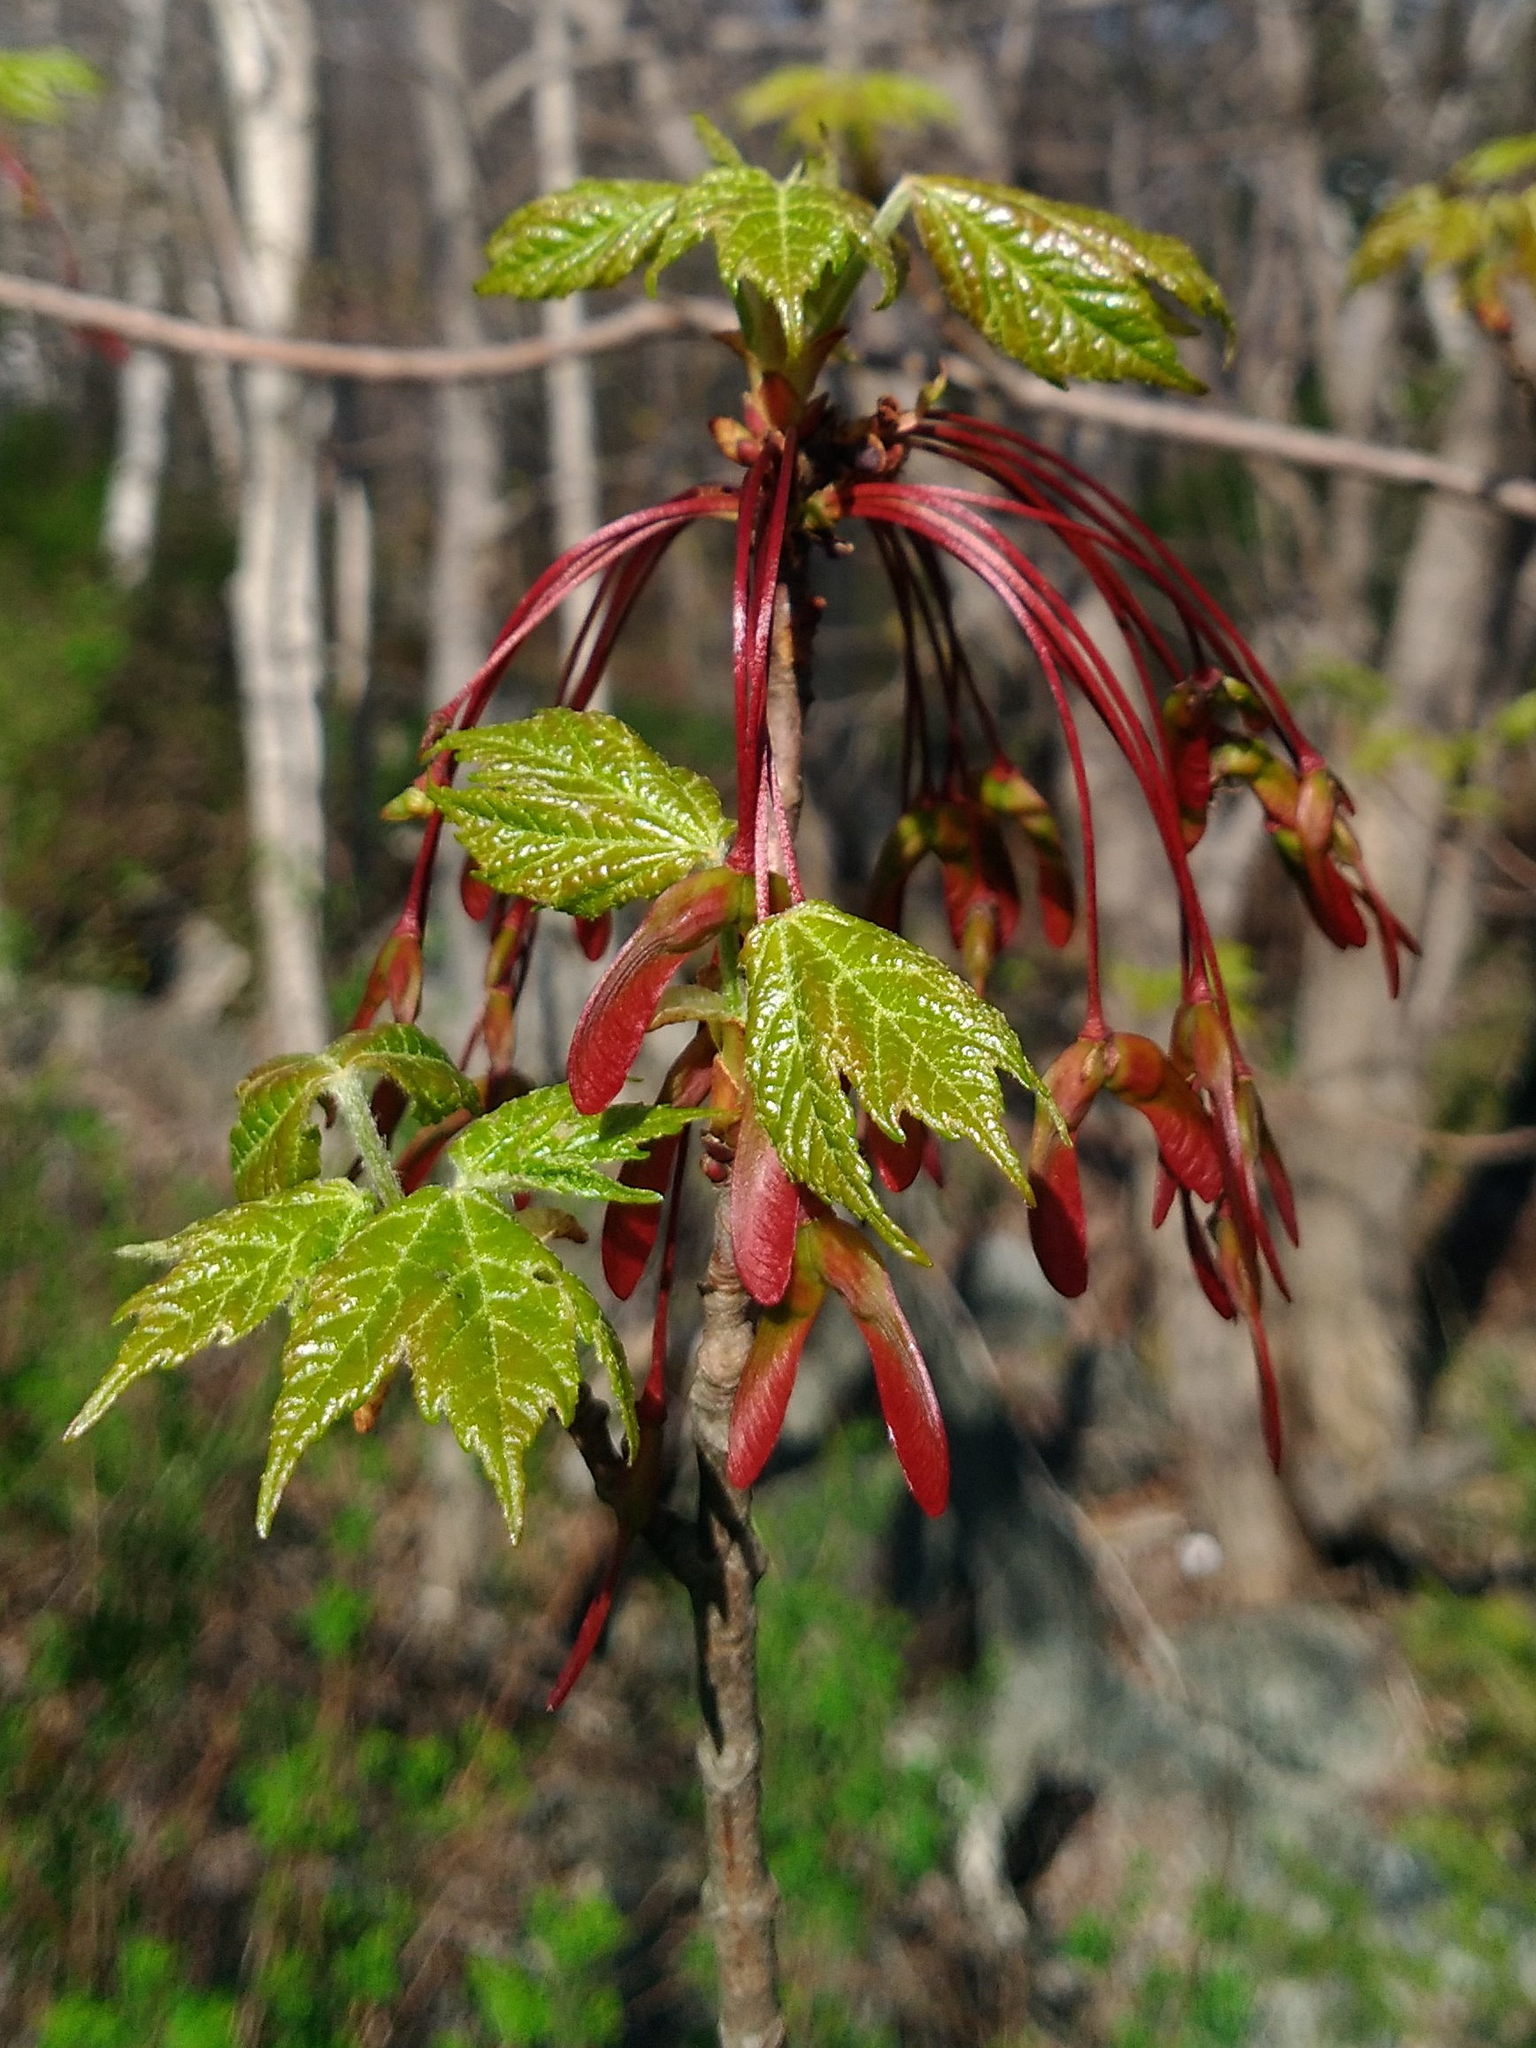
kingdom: Plantae
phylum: Tracheophyta
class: Magnoliopsida
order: Sapindales
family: Sapindaceae
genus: Acer
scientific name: Acer rubrum
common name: Red maple
